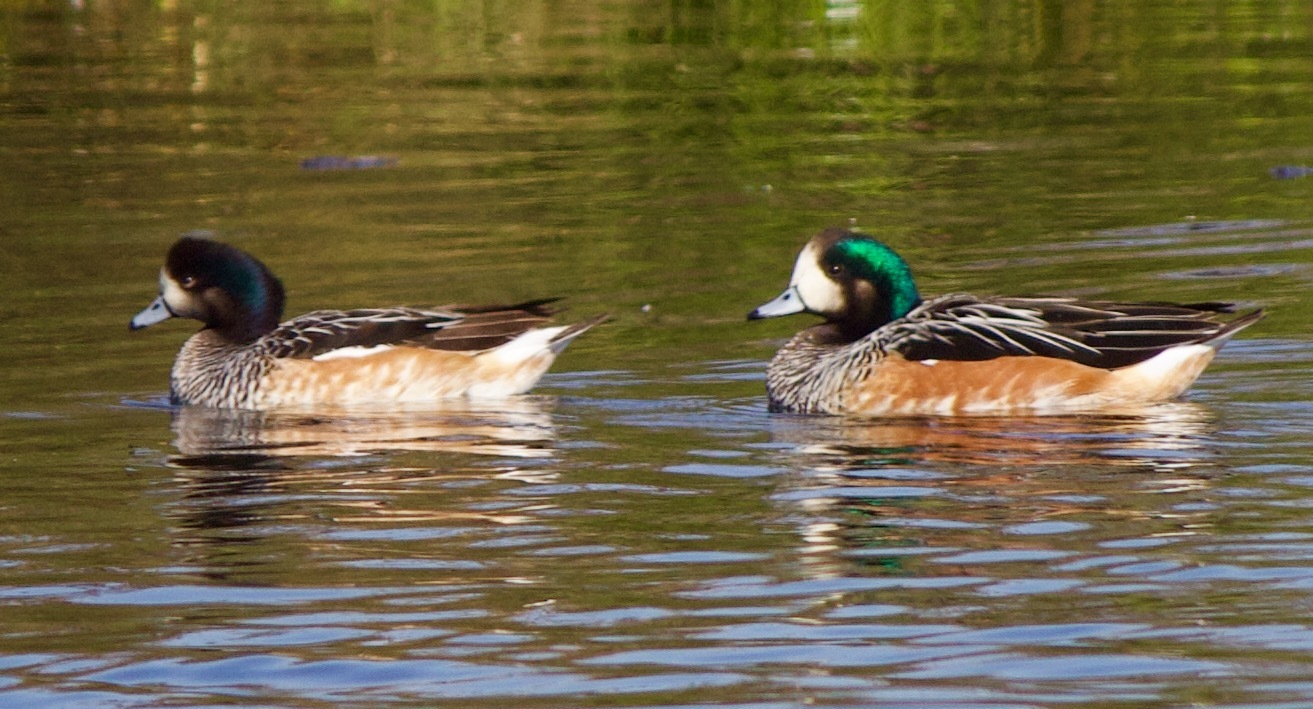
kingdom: Animalia
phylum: Chordata
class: Aves
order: Anseriformes
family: Anatidae
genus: Mareca
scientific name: Mareca sibilatrix
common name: Chiloe wigeon
